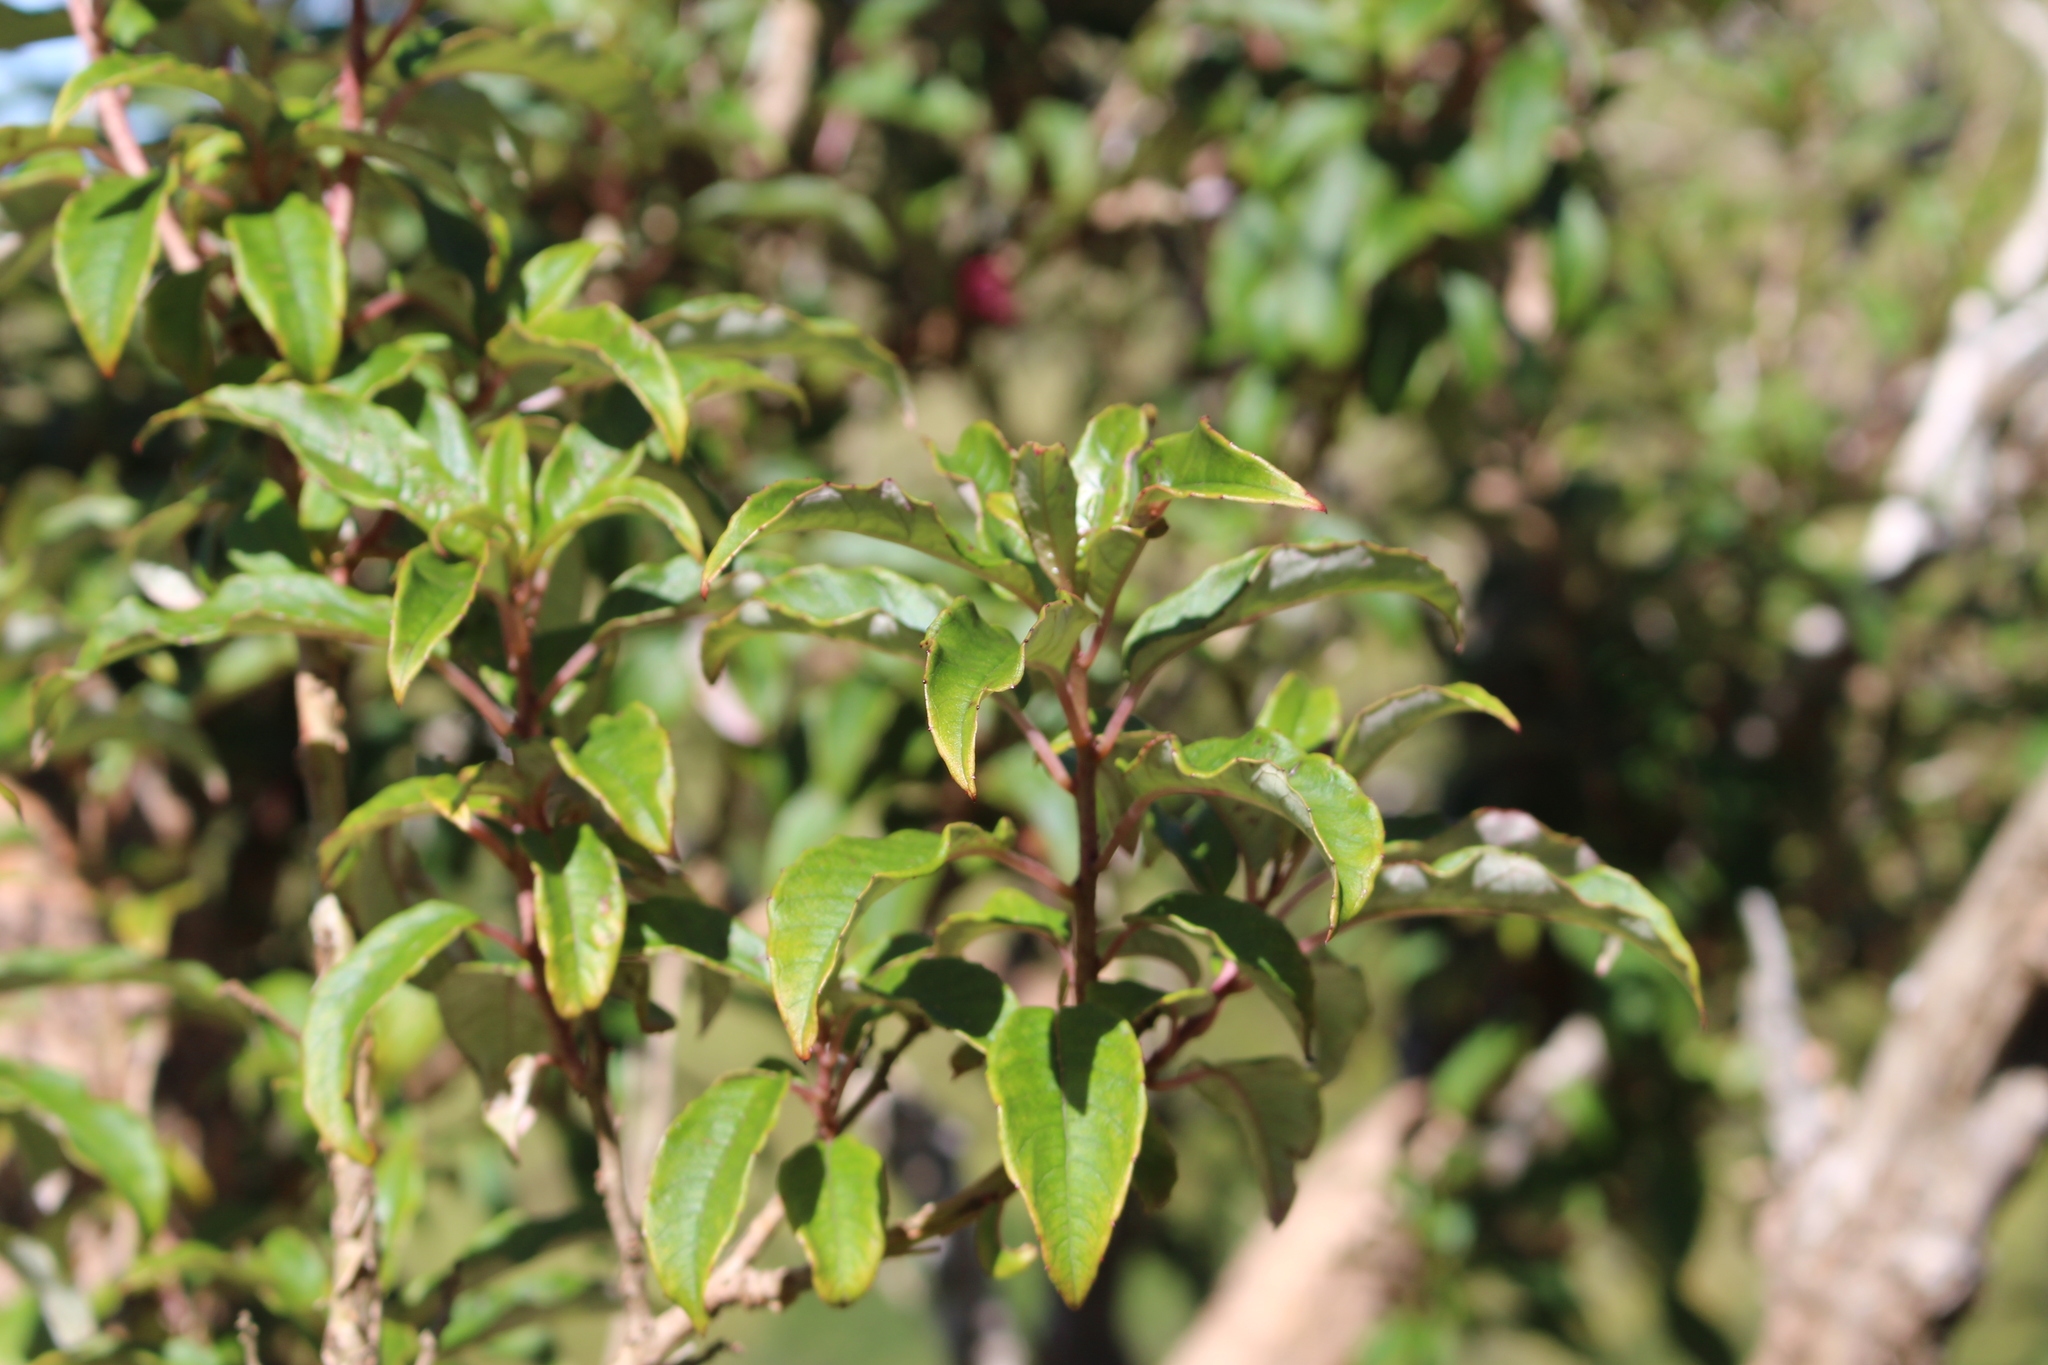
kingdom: Plantae
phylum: Tracheophyta
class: Magnoliopsida
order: Myrtales
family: Onagraceae
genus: Fuchsia
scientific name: Fuchsia excorticata
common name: Tree fuchsia
